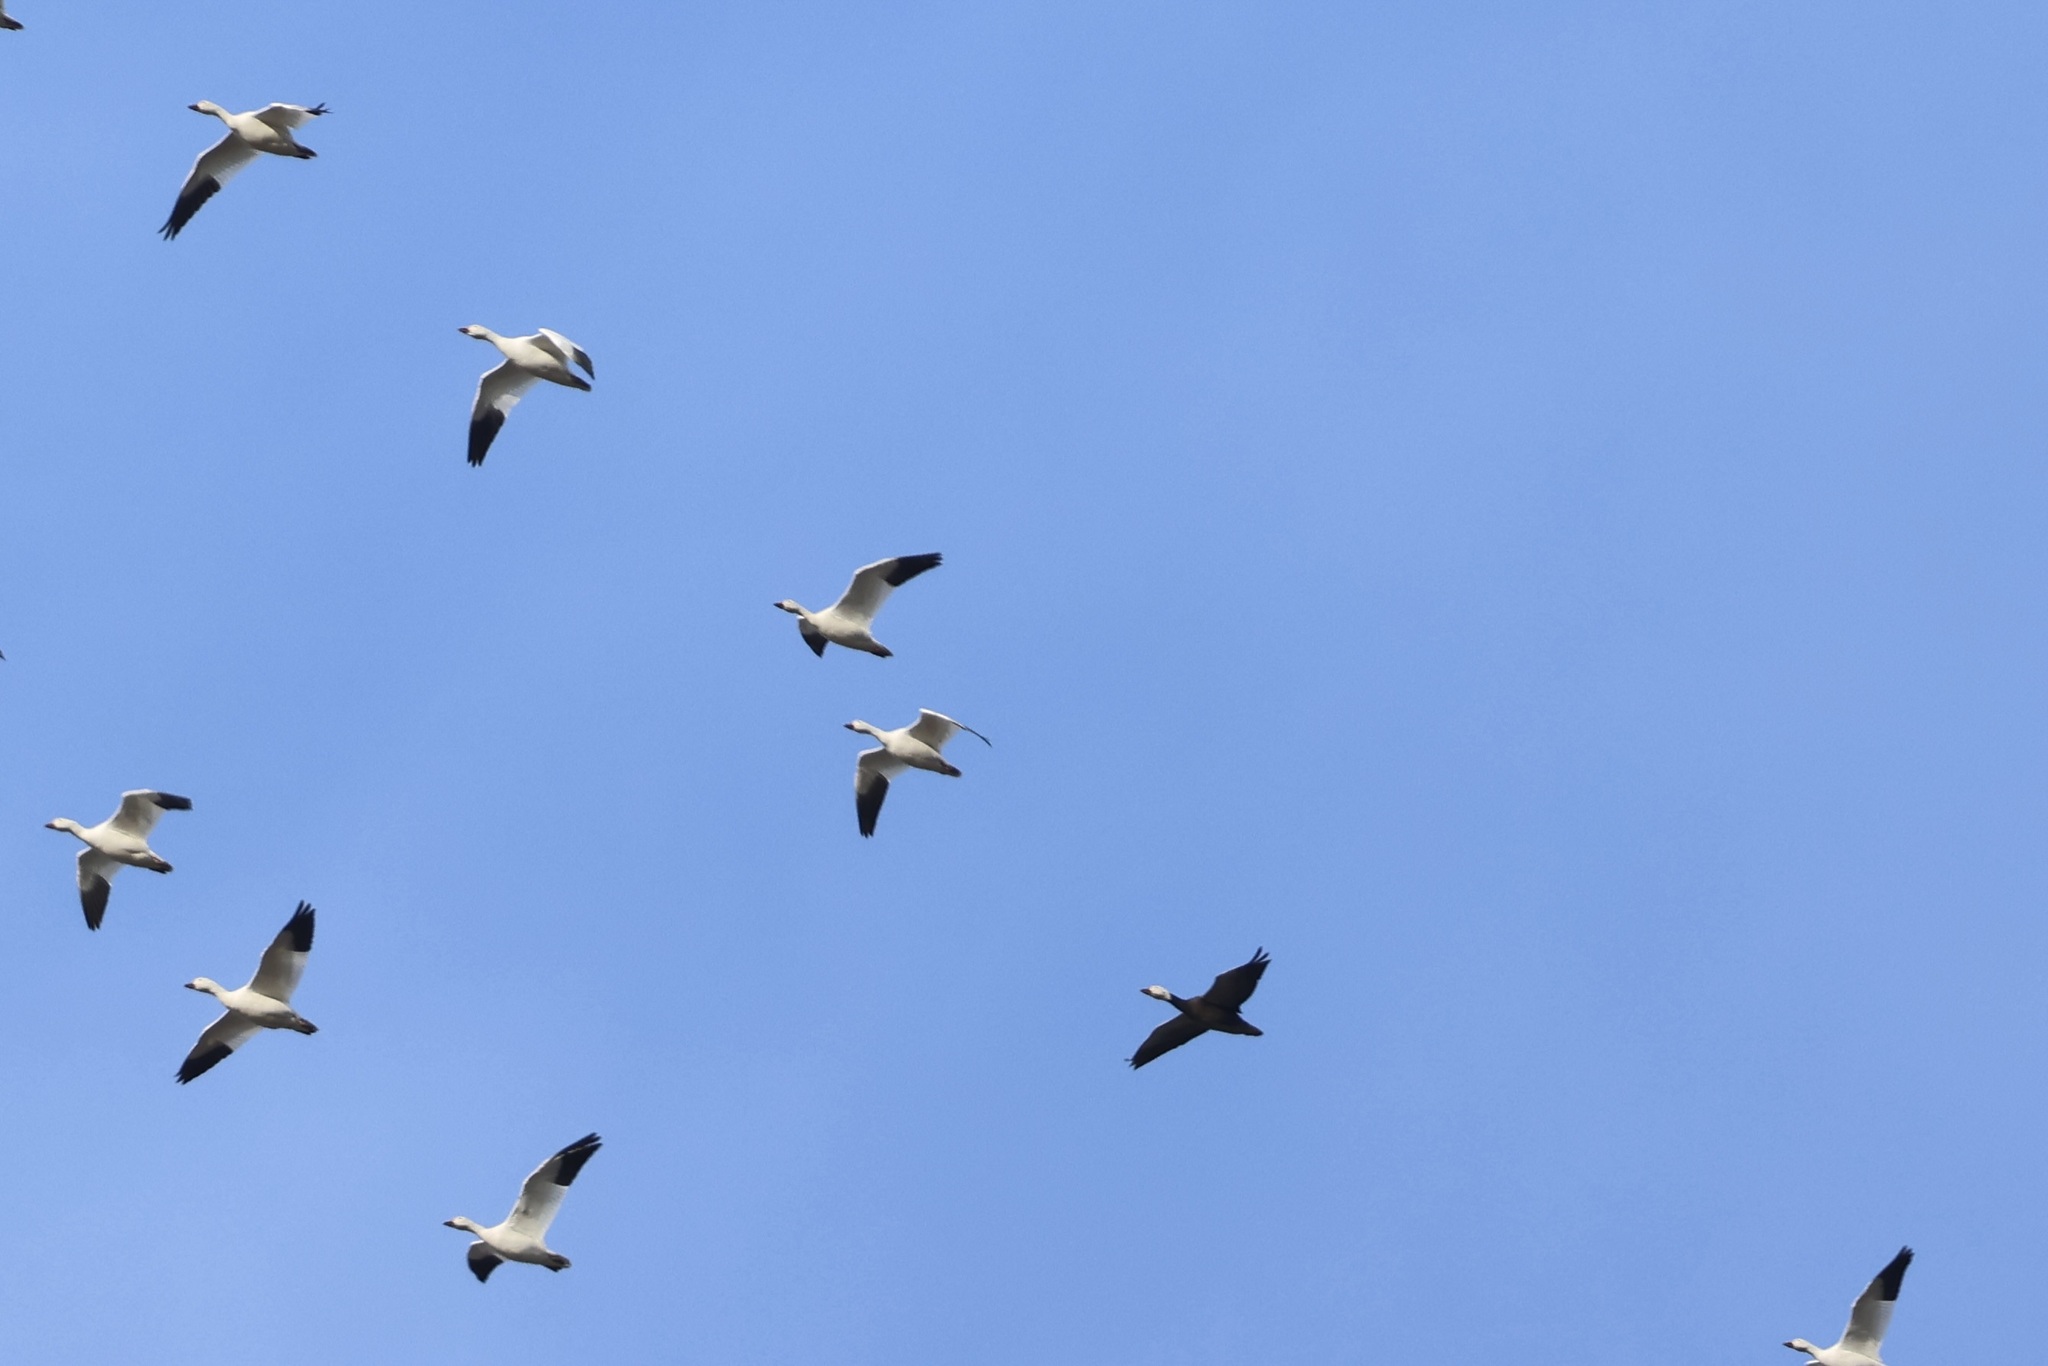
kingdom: Animalia
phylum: Chordata
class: Aves
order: Anseriformes
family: Anatidae
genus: Anser
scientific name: Anser caerulescens
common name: Snow goose
